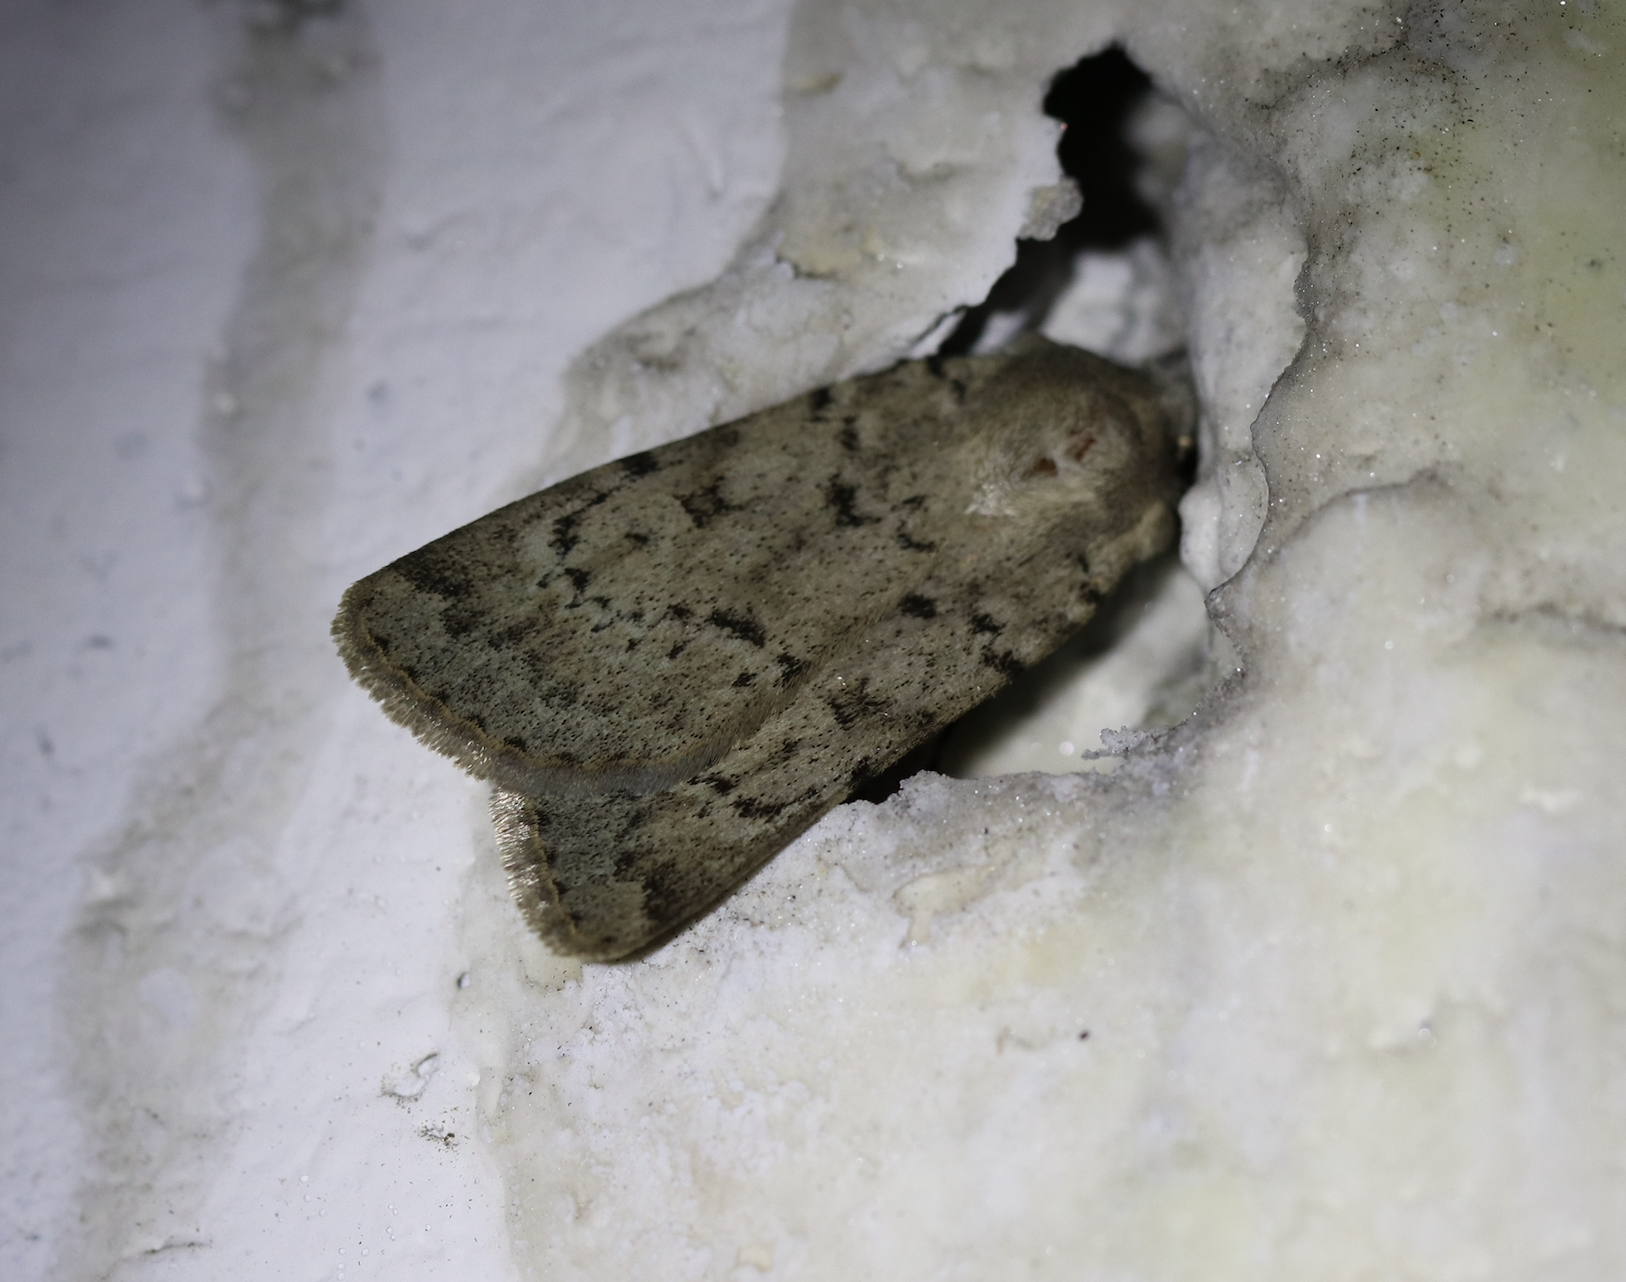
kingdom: Animalia
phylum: Arthropoda
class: Insecta
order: Lepidoptera
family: Noctuidae
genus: Epipsilia
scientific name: Epipsilia grisescens
